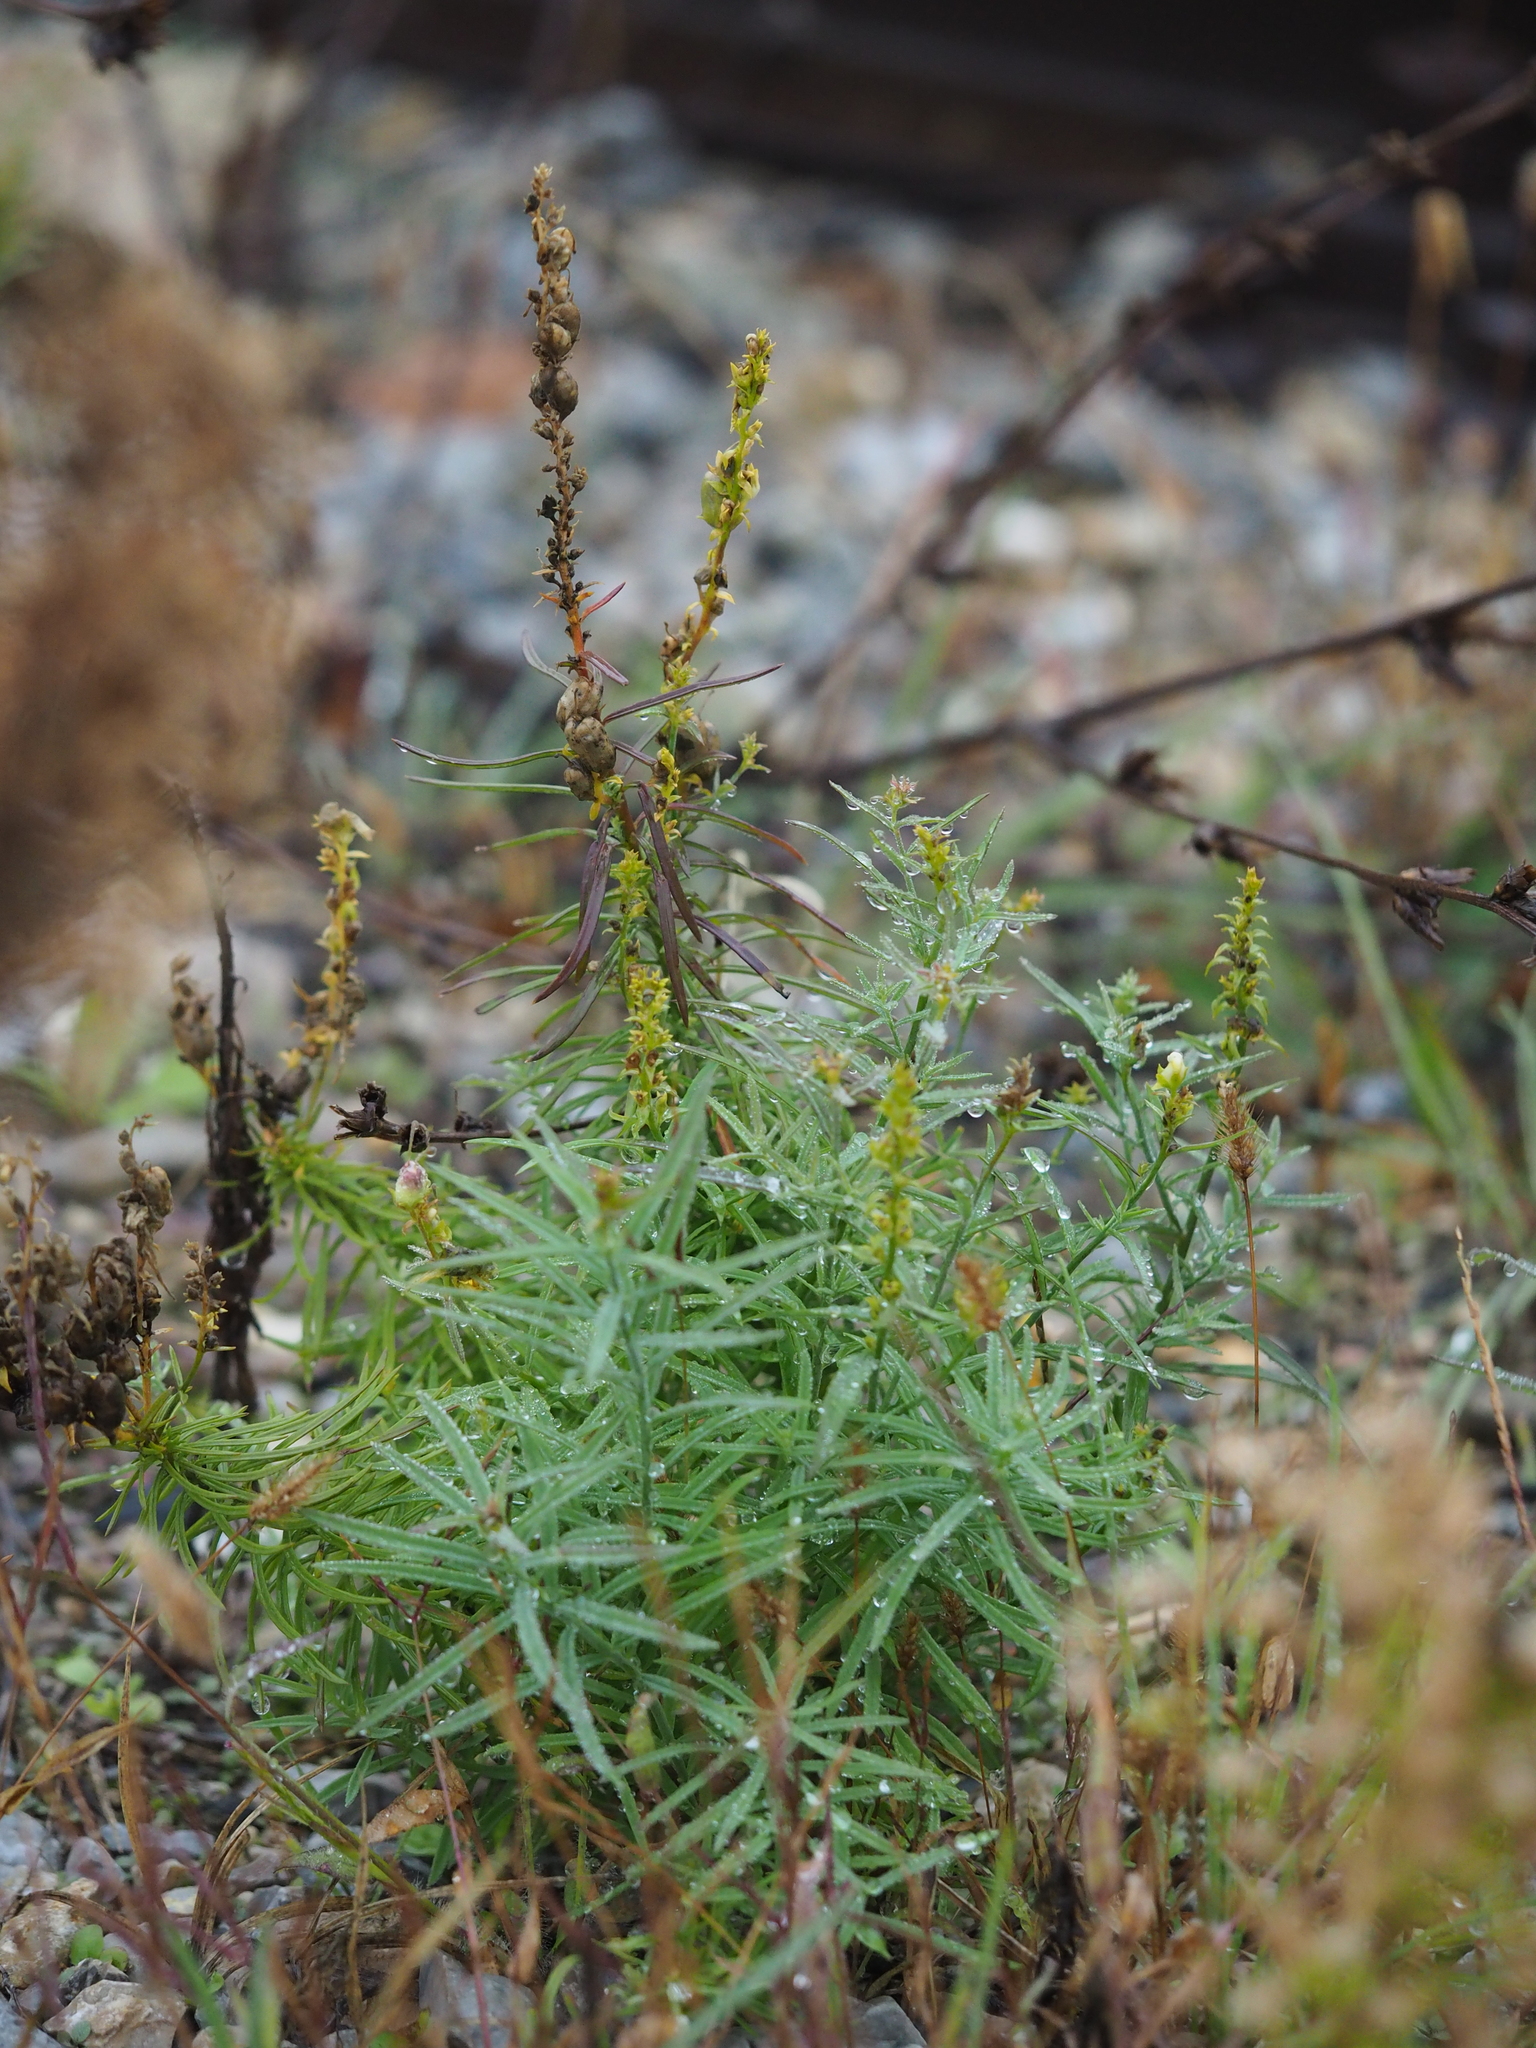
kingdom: Plantae
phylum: Tracheophyta
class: Magnoliopsida
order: Lamiales
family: Plantaginaceae
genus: Linaria
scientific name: Linaria vulgaris
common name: Butter and eggs
